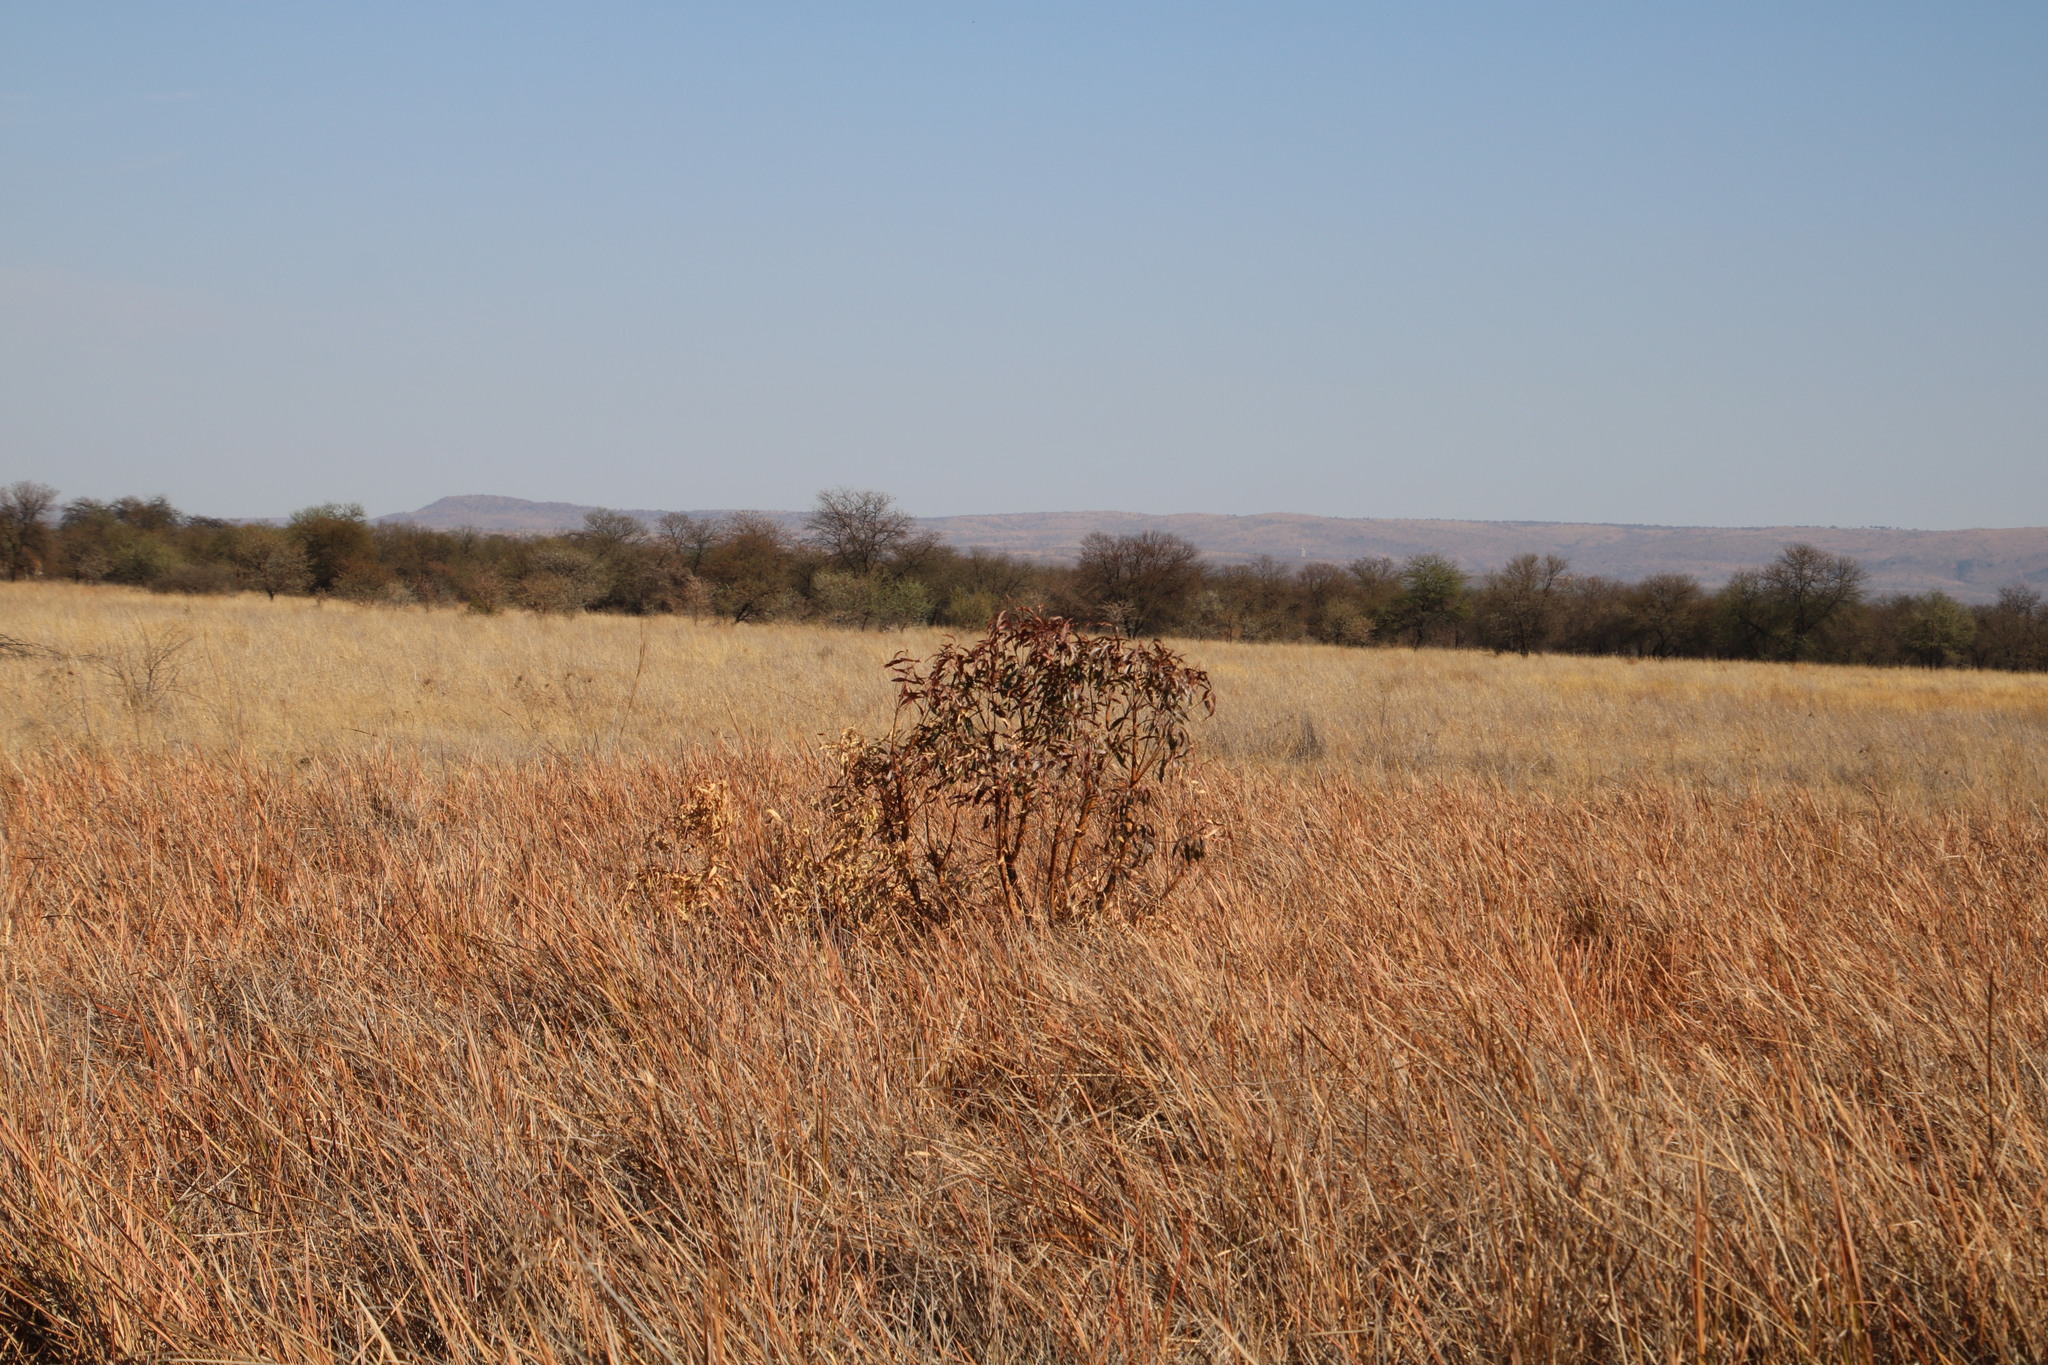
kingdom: Plantae
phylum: Tracheophyta
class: Magnoliopsida
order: Proteales
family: Proteaceae
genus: Faurea
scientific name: Faurea saligna
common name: African bean
